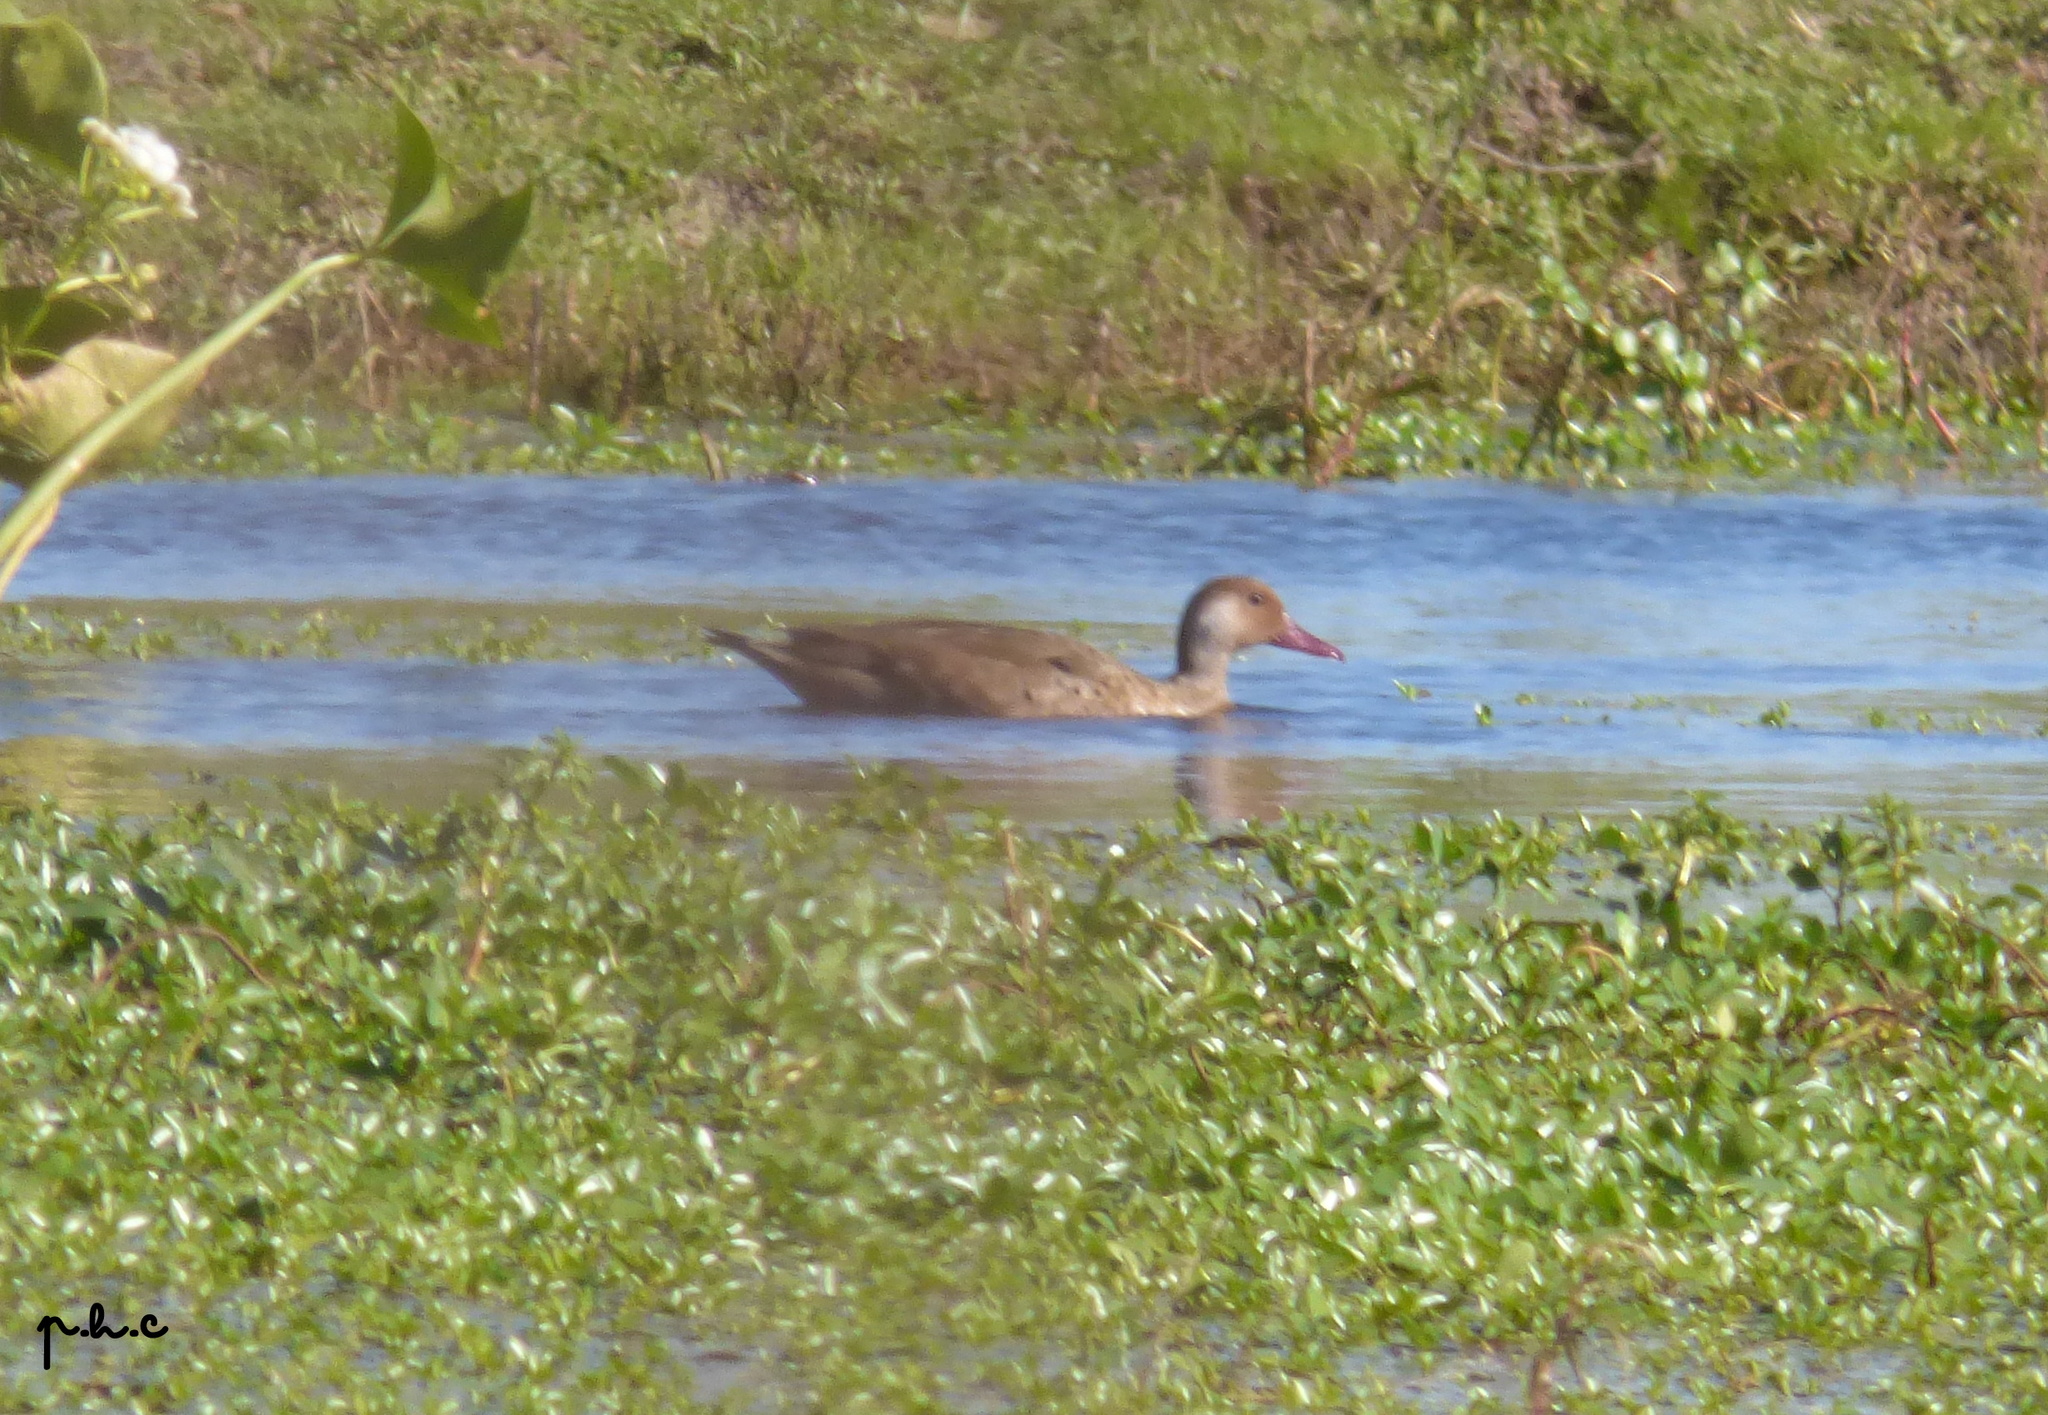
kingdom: Animalia
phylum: Chordata
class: Aves
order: Anseriformes
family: Anatidae
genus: Amazonetta
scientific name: Amazonetta brasiliensis
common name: Brazilian teal
